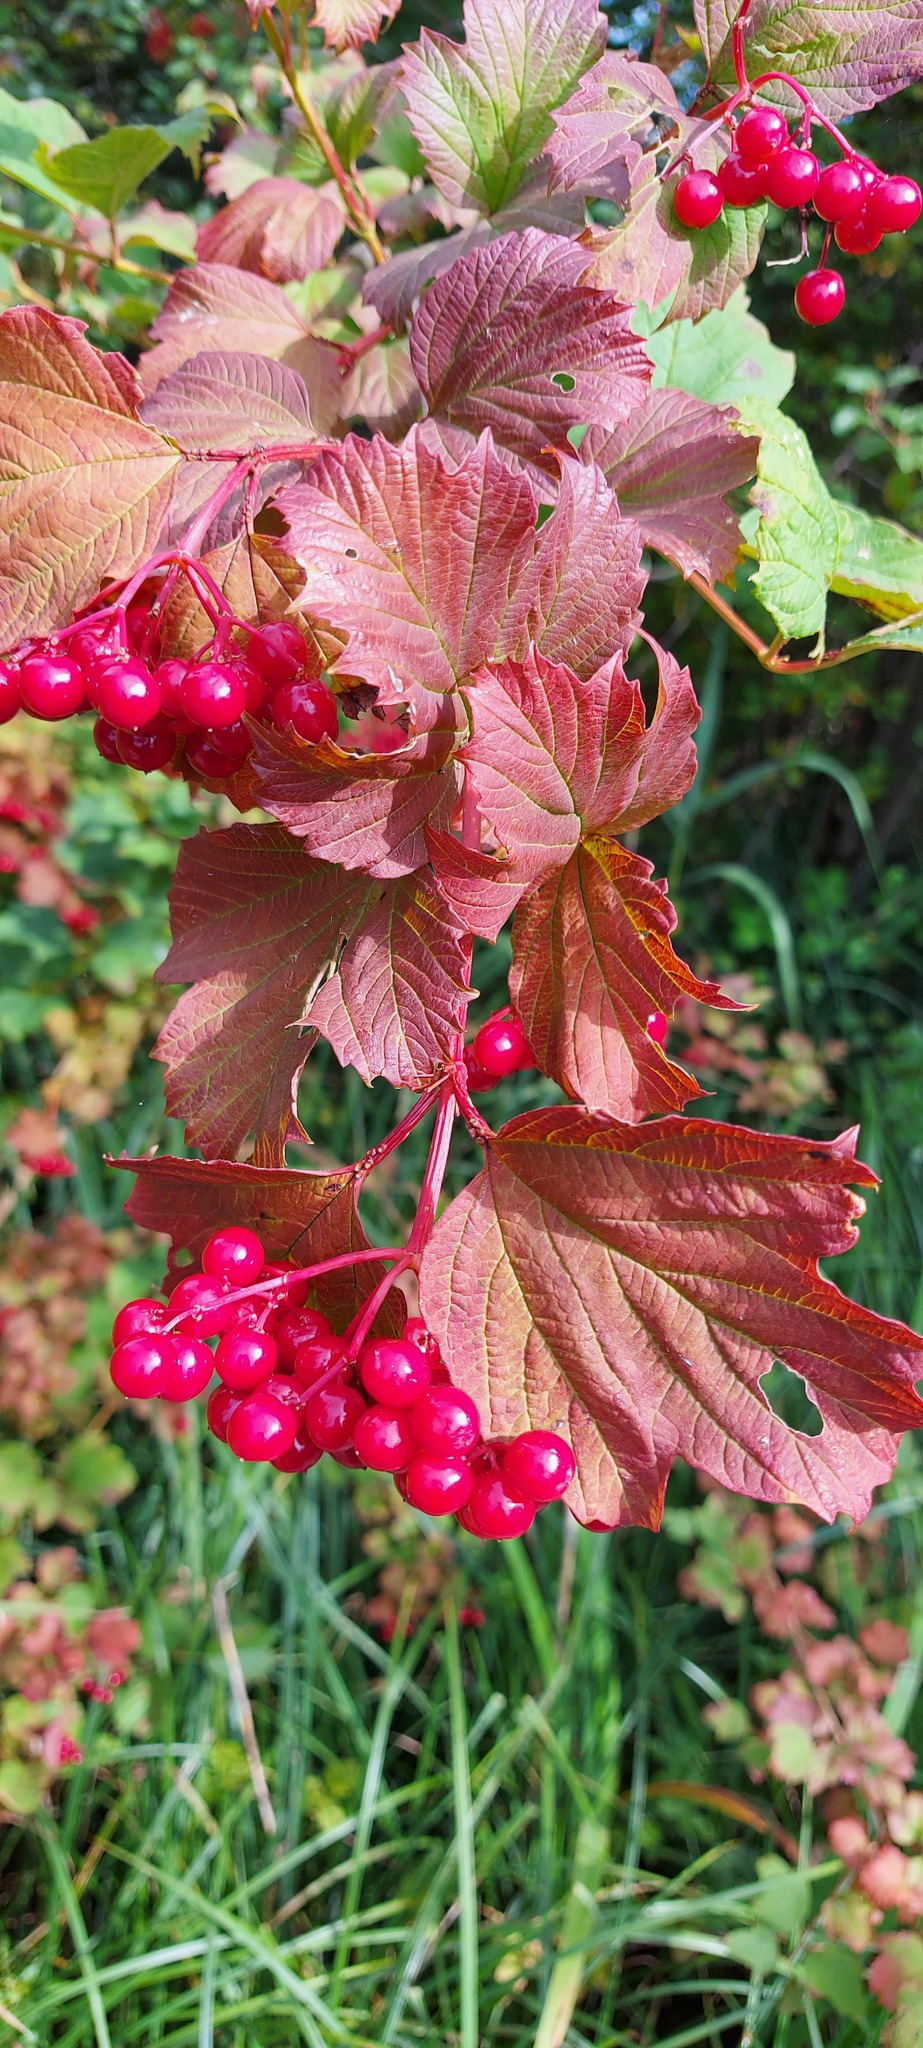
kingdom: Plantae
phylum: Tracheophyta
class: Magnoliopsida
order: Dipsacales
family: Viburnaceae
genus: Viburnum
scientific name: Viburnum opulus
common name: Guelder-rose
